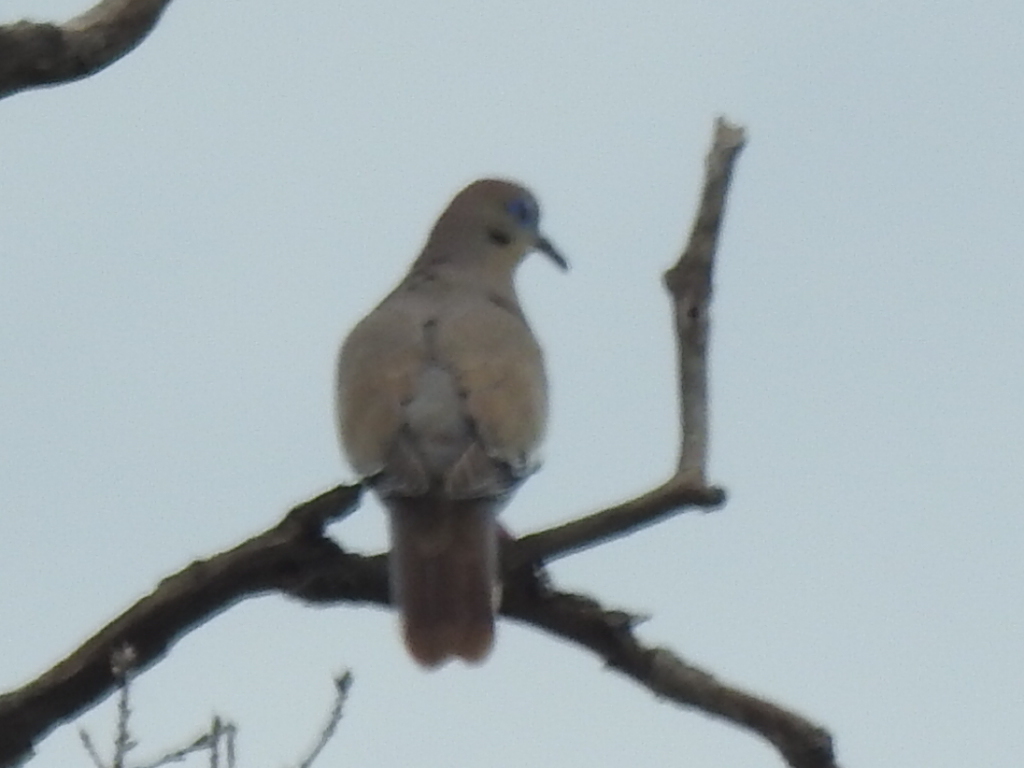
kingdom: Animalia
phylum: Chordata
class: Aves
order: Columbiformes
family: Columbidae
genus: Zenaida
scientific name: Zenaida asiatica
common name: White-winged dove
